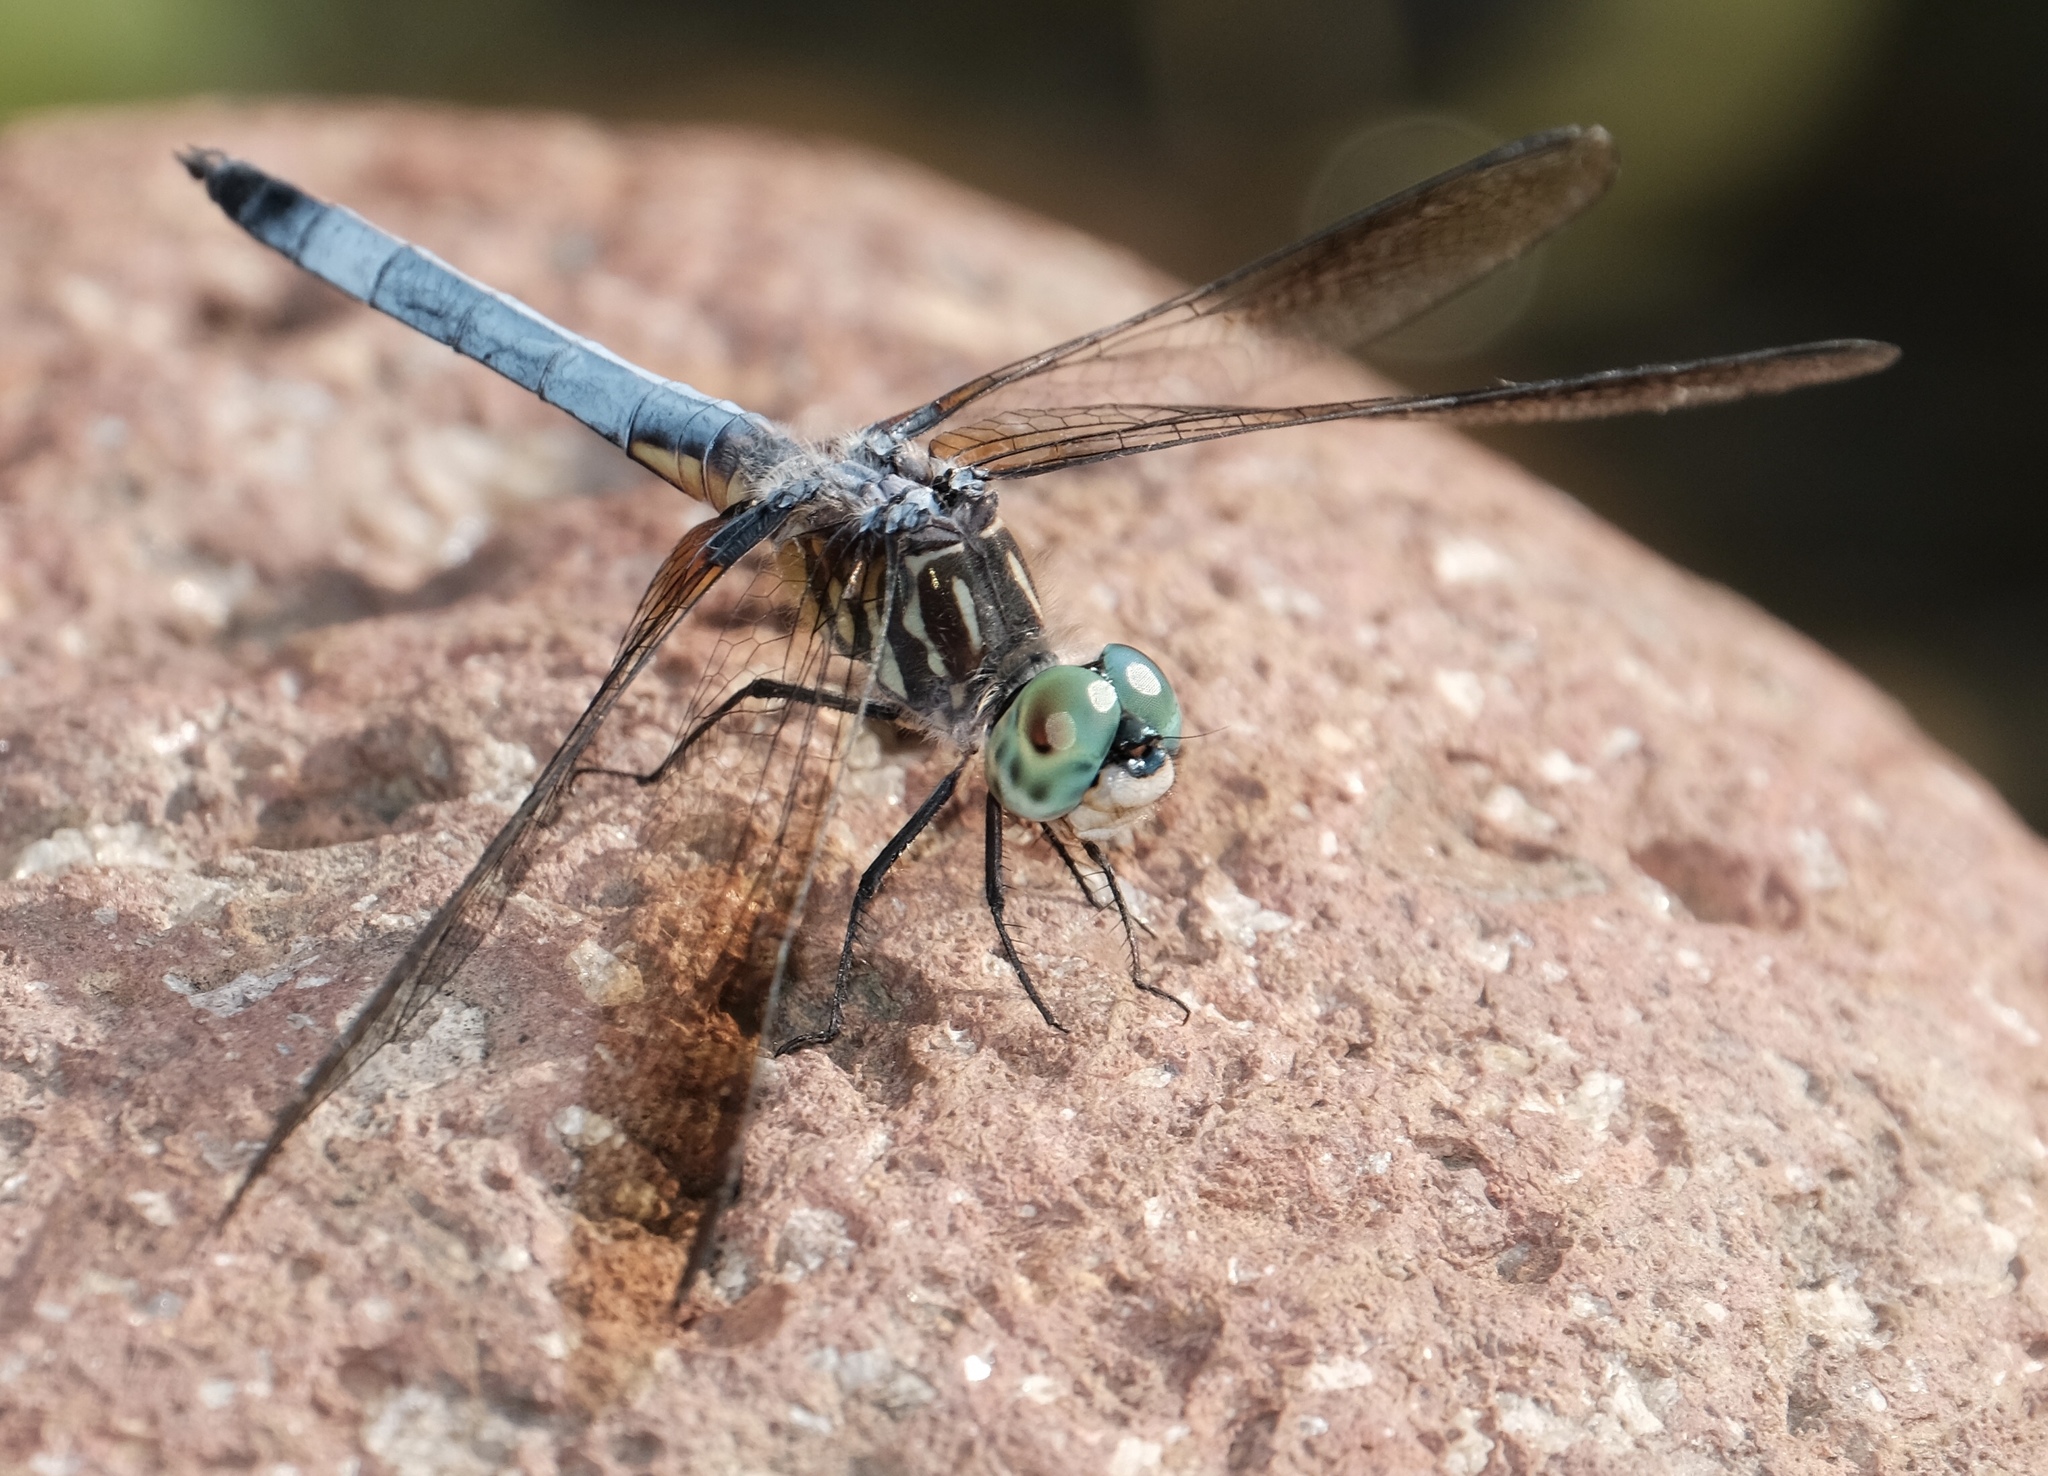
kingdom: Animalia
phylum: Arthropoda
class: Insecta
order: Odonata
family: Libellulidae
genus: Pachydiplax
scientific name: Pachydiplax longipennis
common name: Blue dasher
